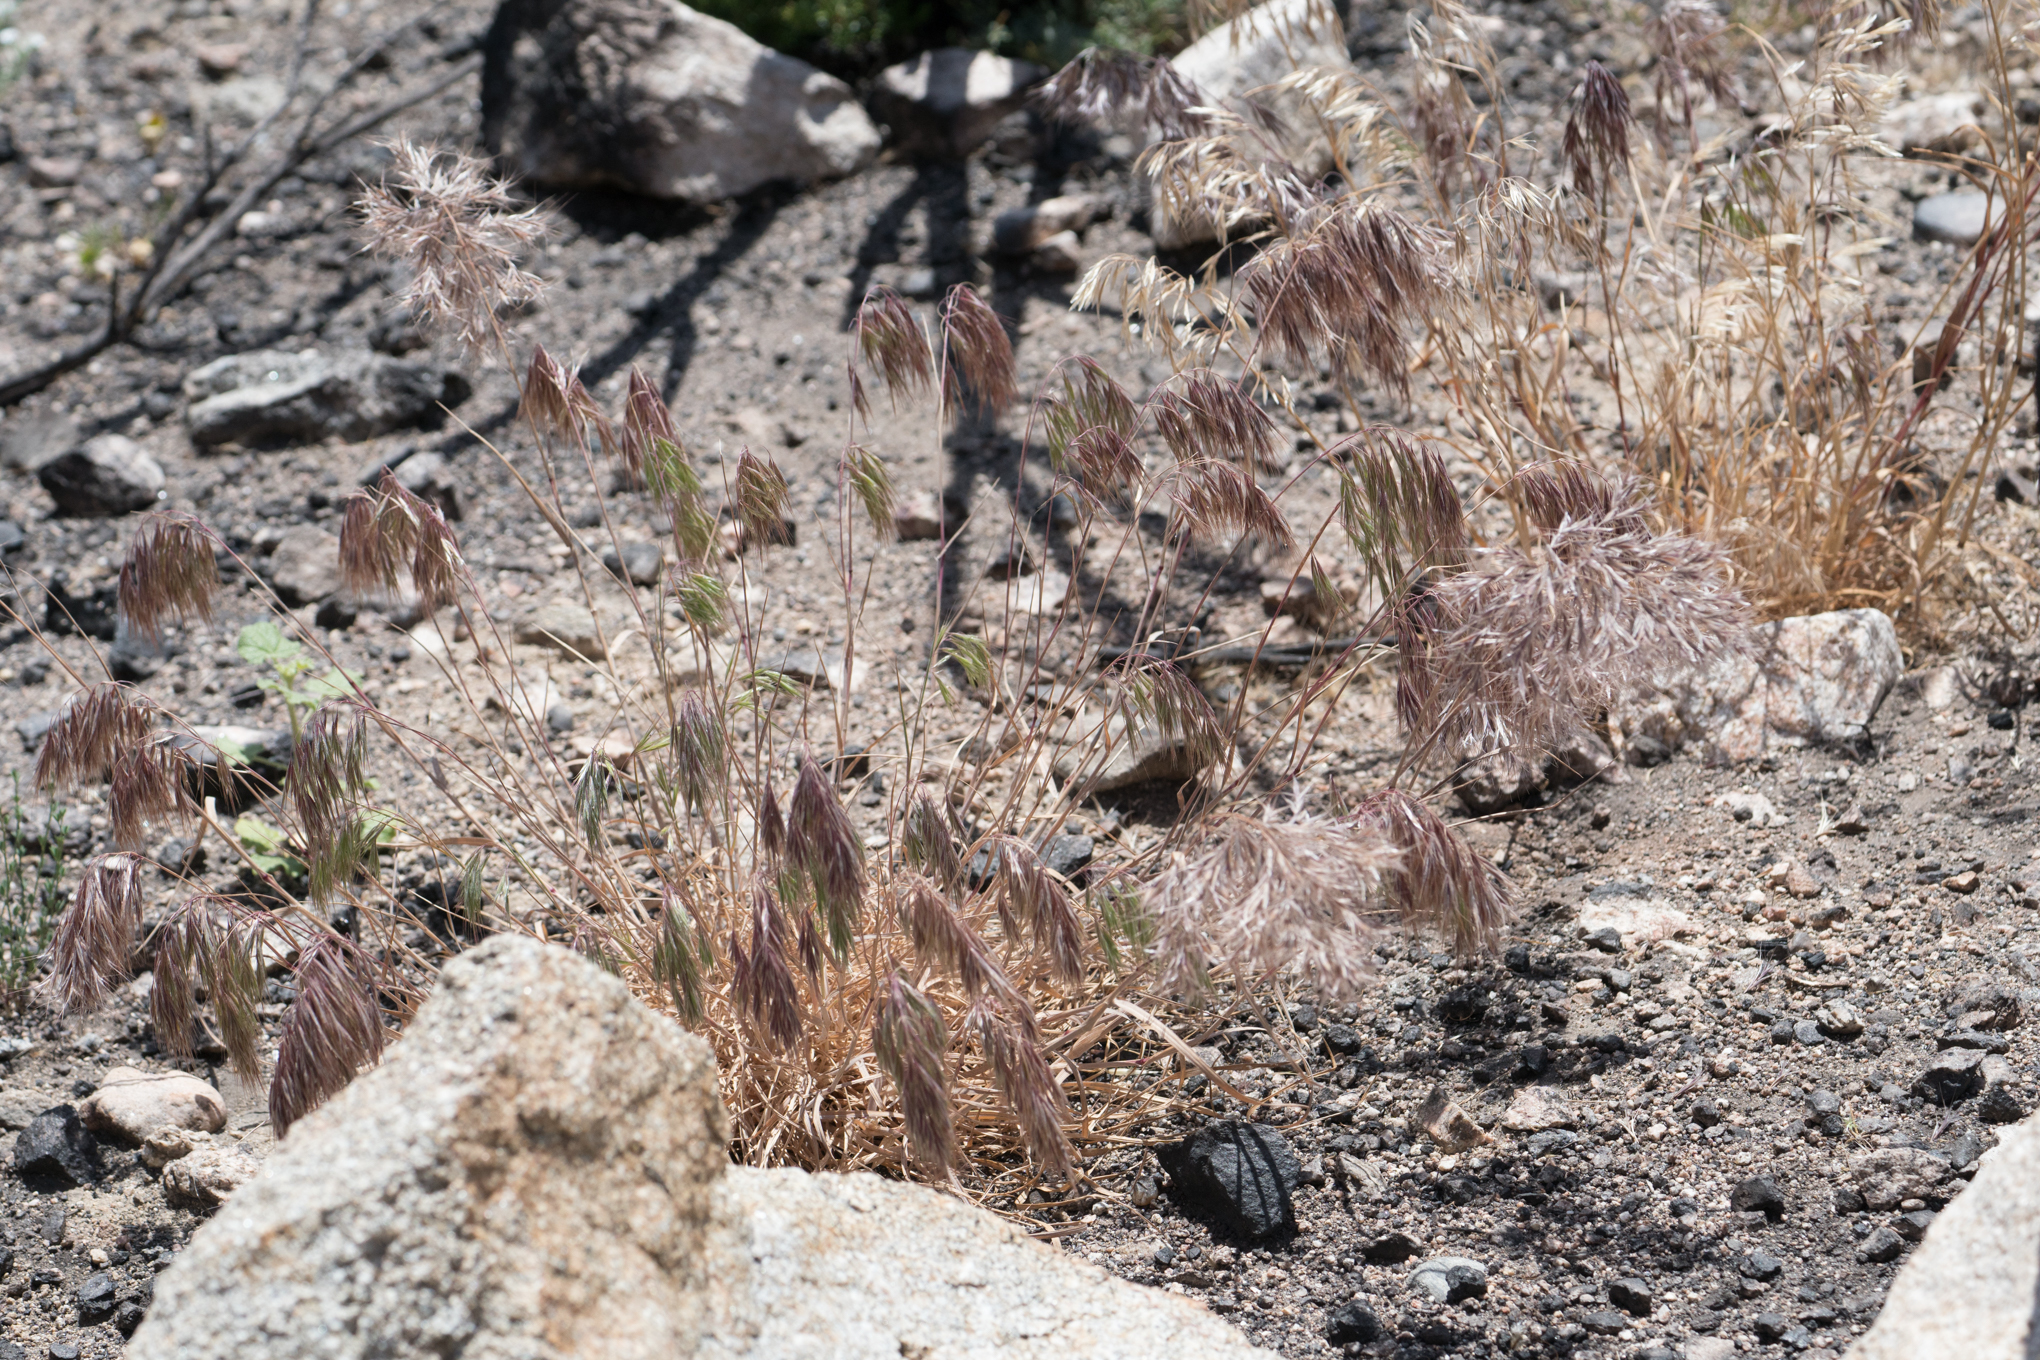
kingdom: Plantae
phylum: Tracheophyta
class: Liliopsida
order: Poales
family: Poaceae
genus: Bromus
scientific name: Bromus tectorum
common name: Cheatgrass
